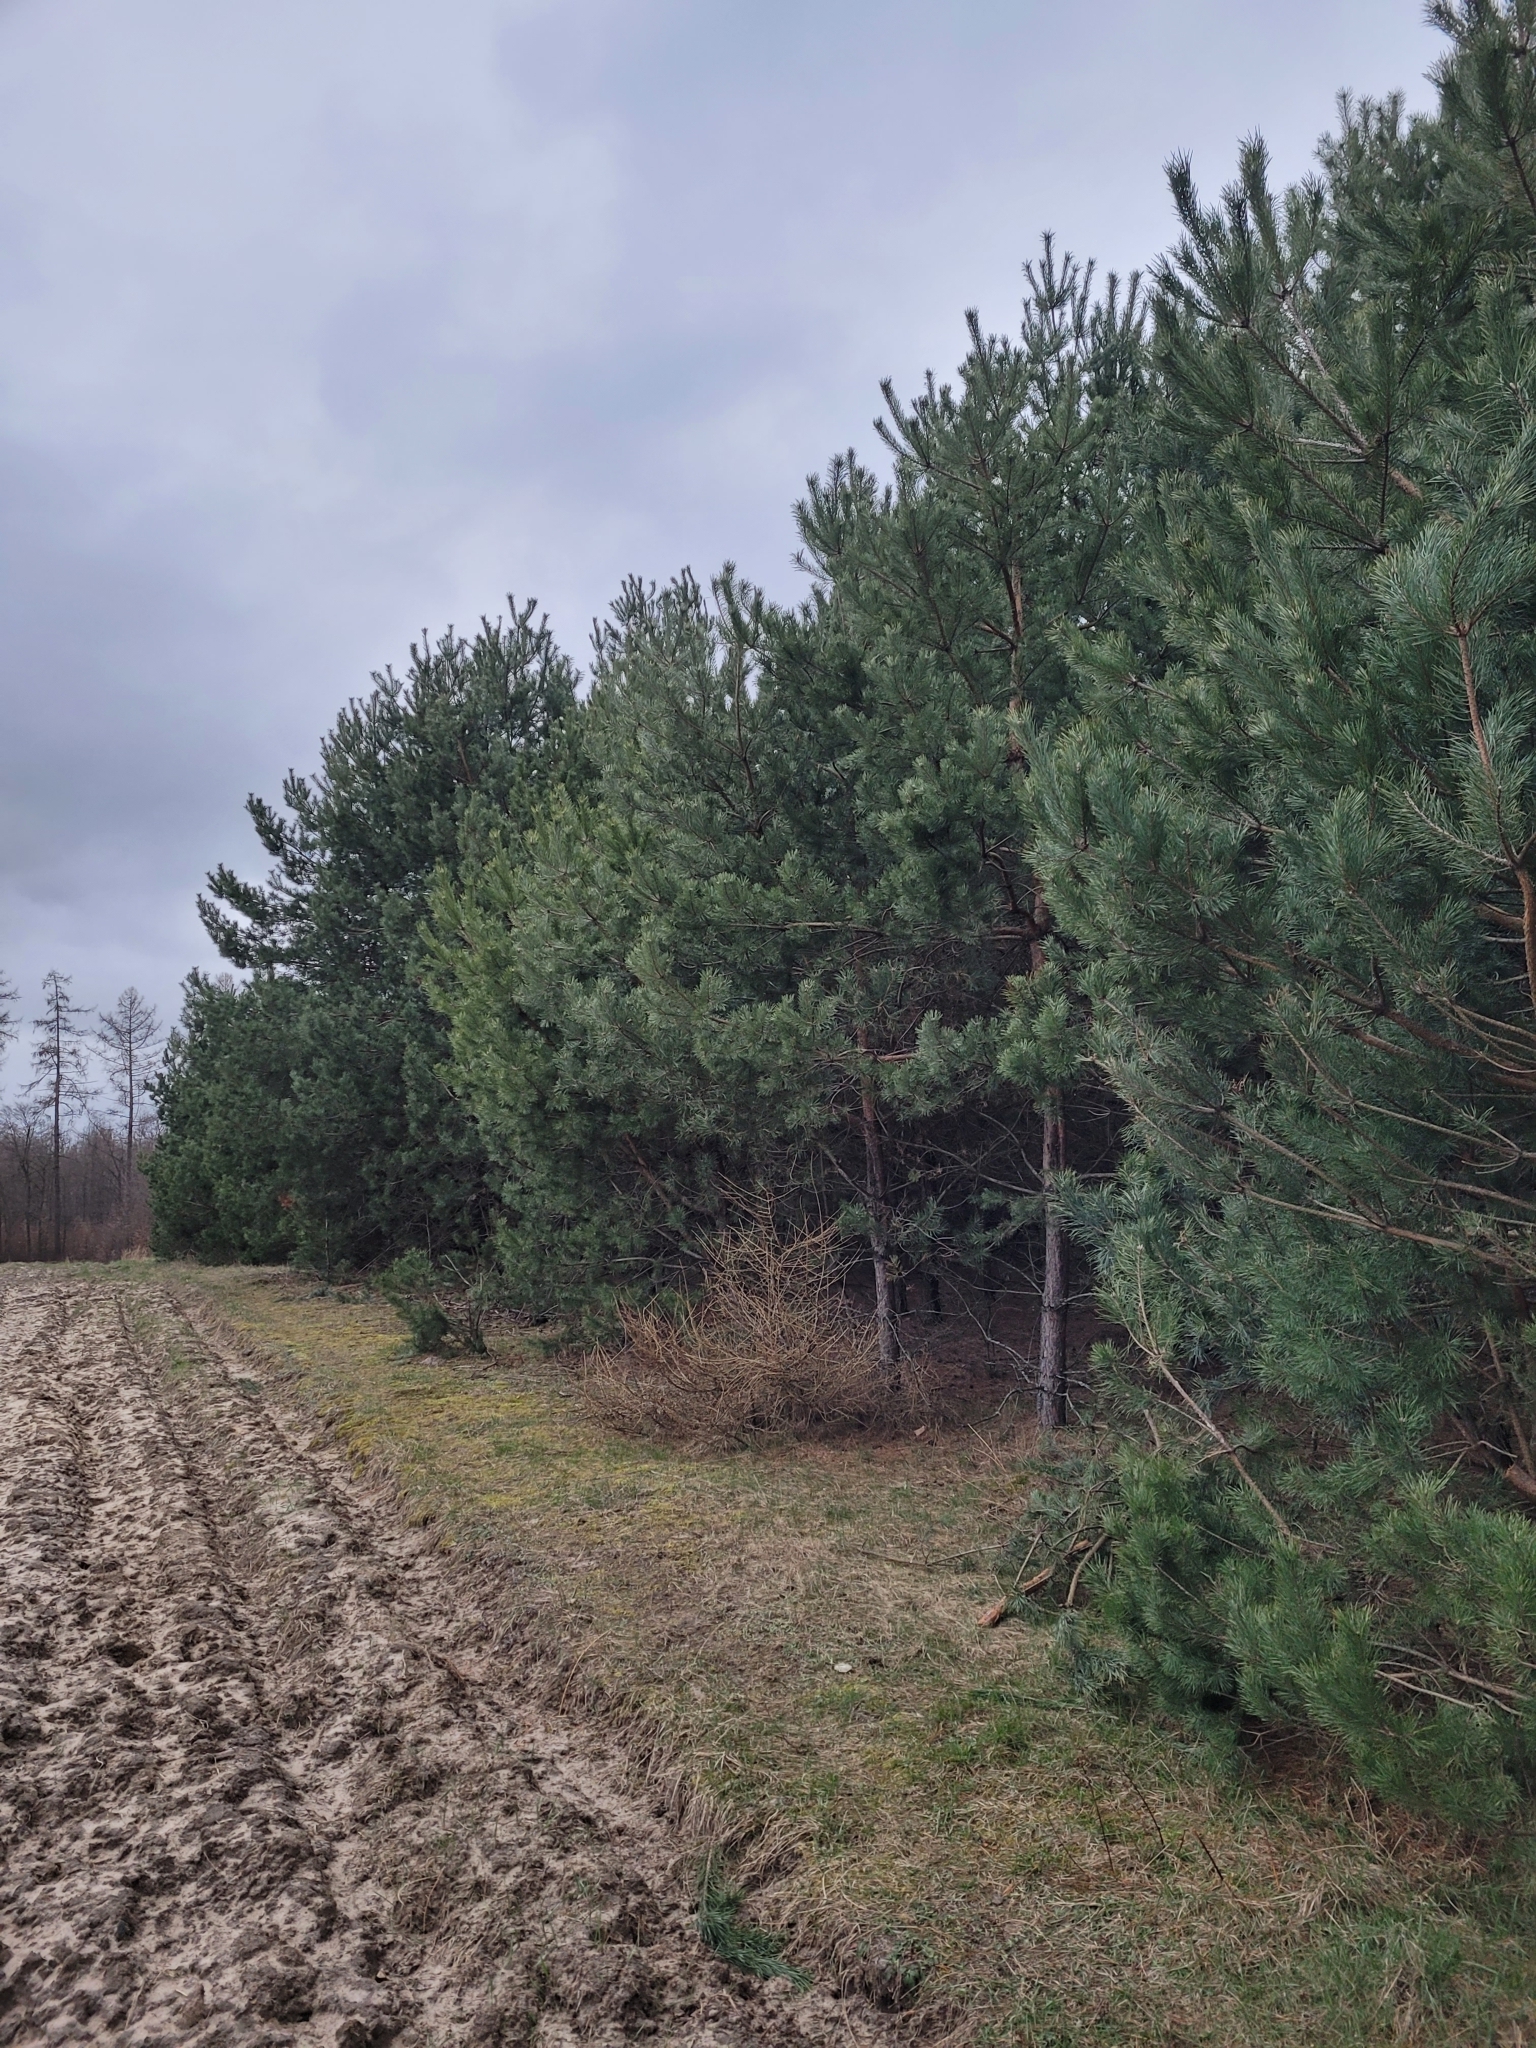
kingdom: Plantae
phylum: Tracheophyta
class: Pinopsida
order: Pinales
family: Pinaceae
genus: Pinus
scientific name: Pinus sylvestris
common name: Scots pine
